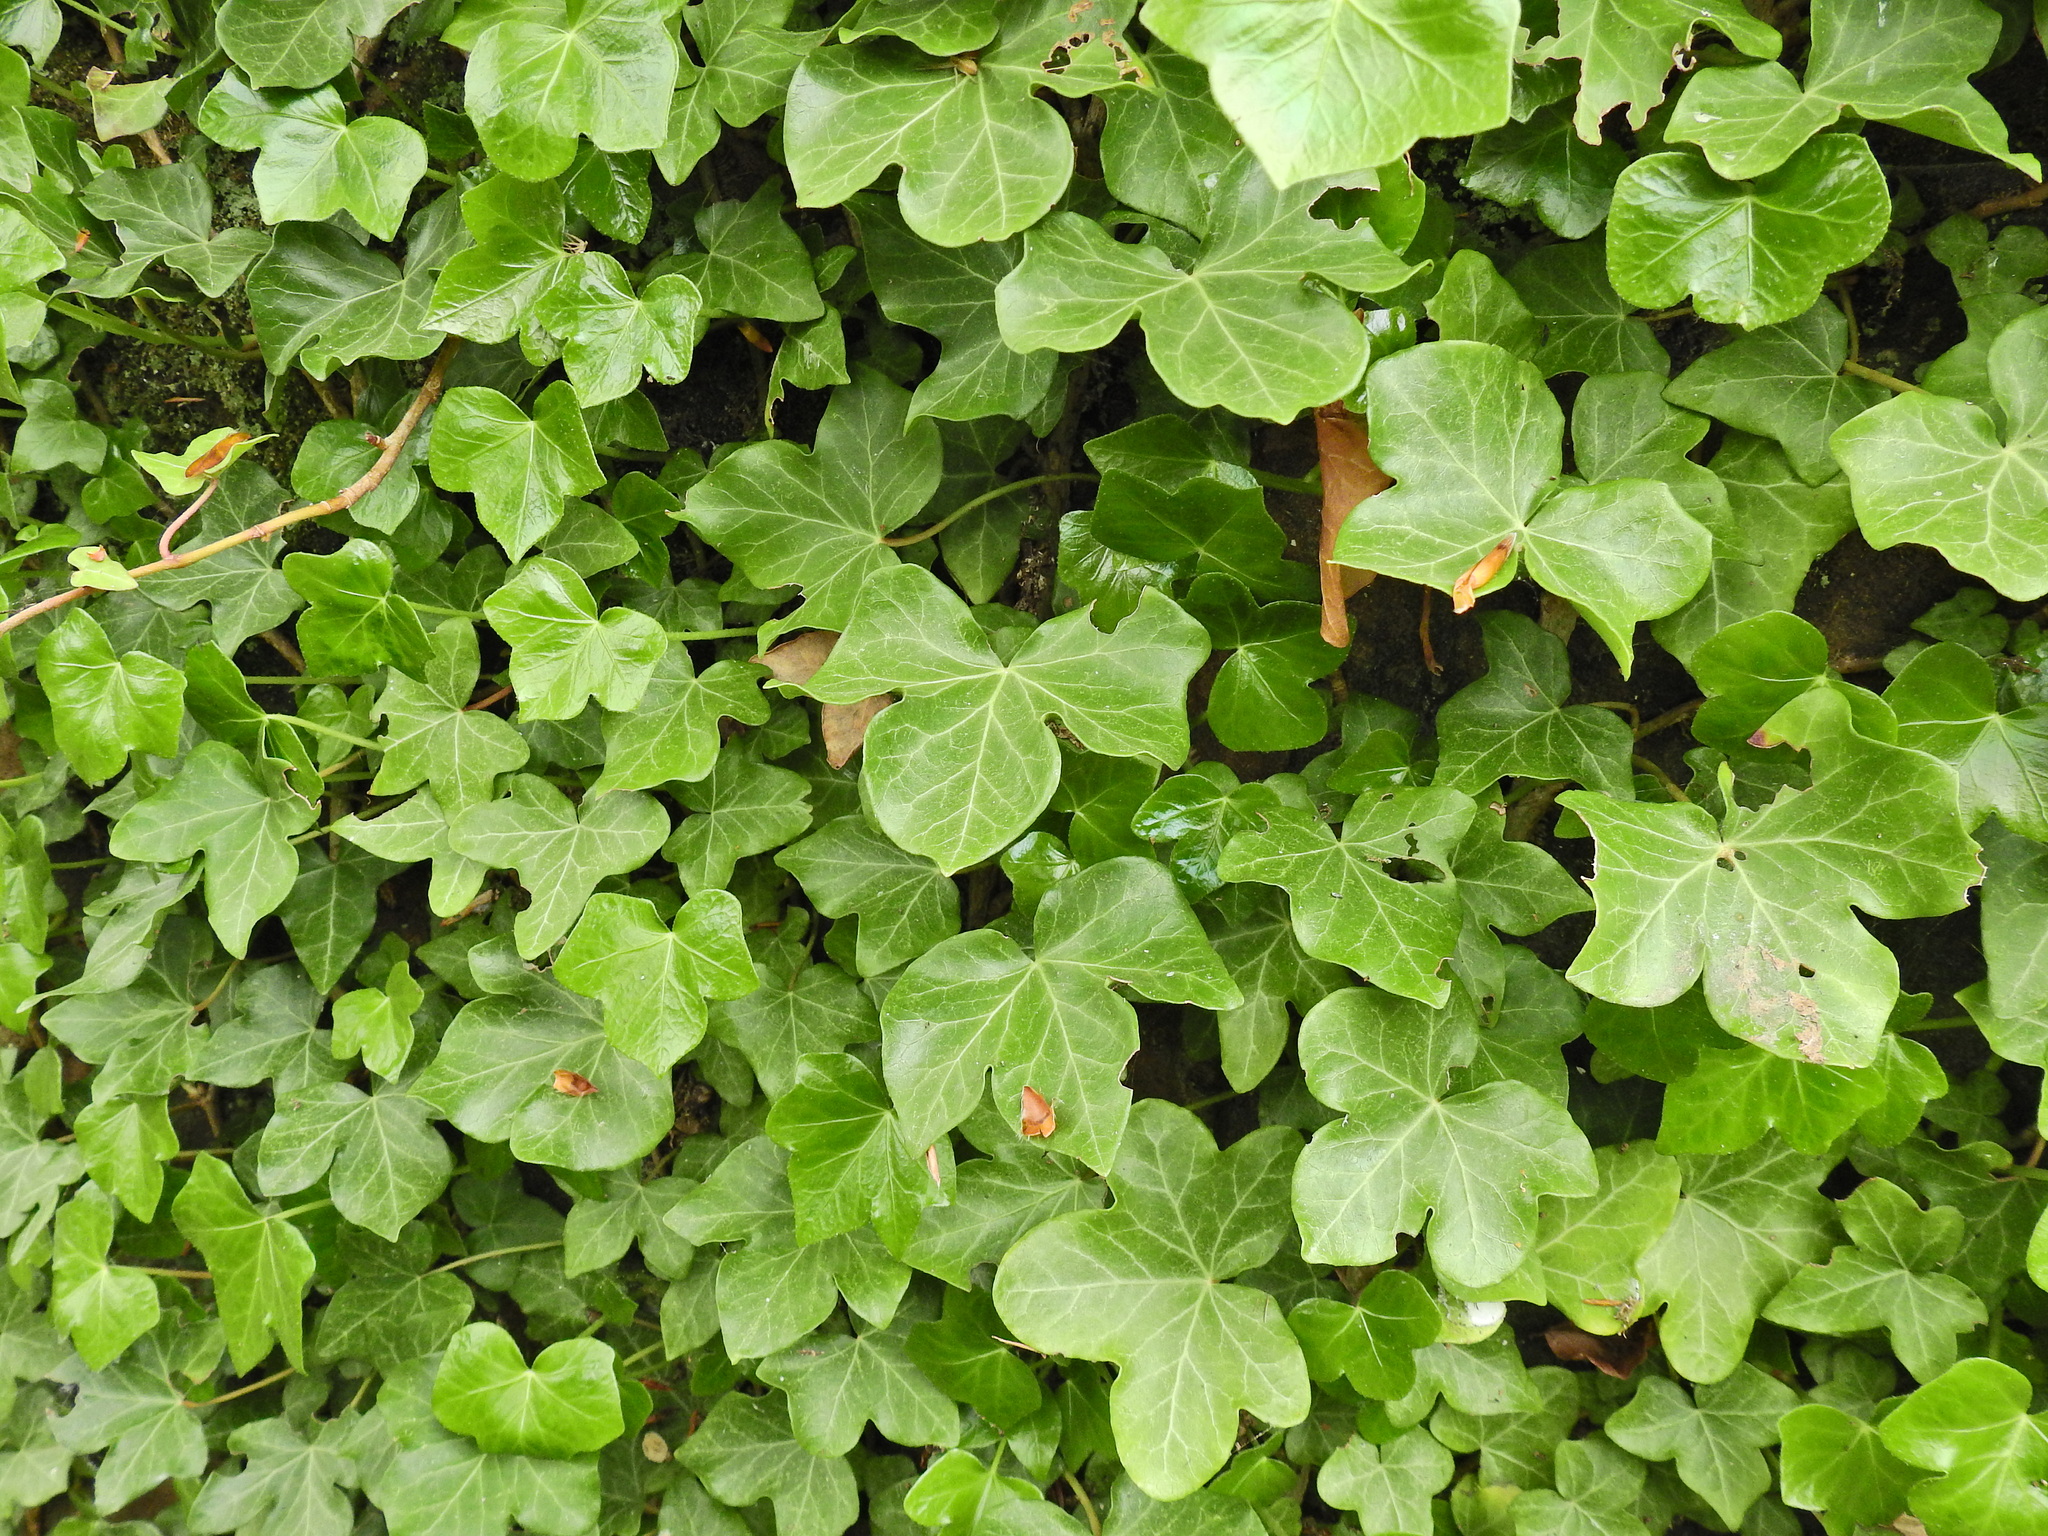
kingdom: Plantae
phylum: Tracheophyta
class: Magnoliopsida
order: Apiales
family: Araliaceae
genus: Hedera
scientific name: Hedera helix
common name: Ivy
